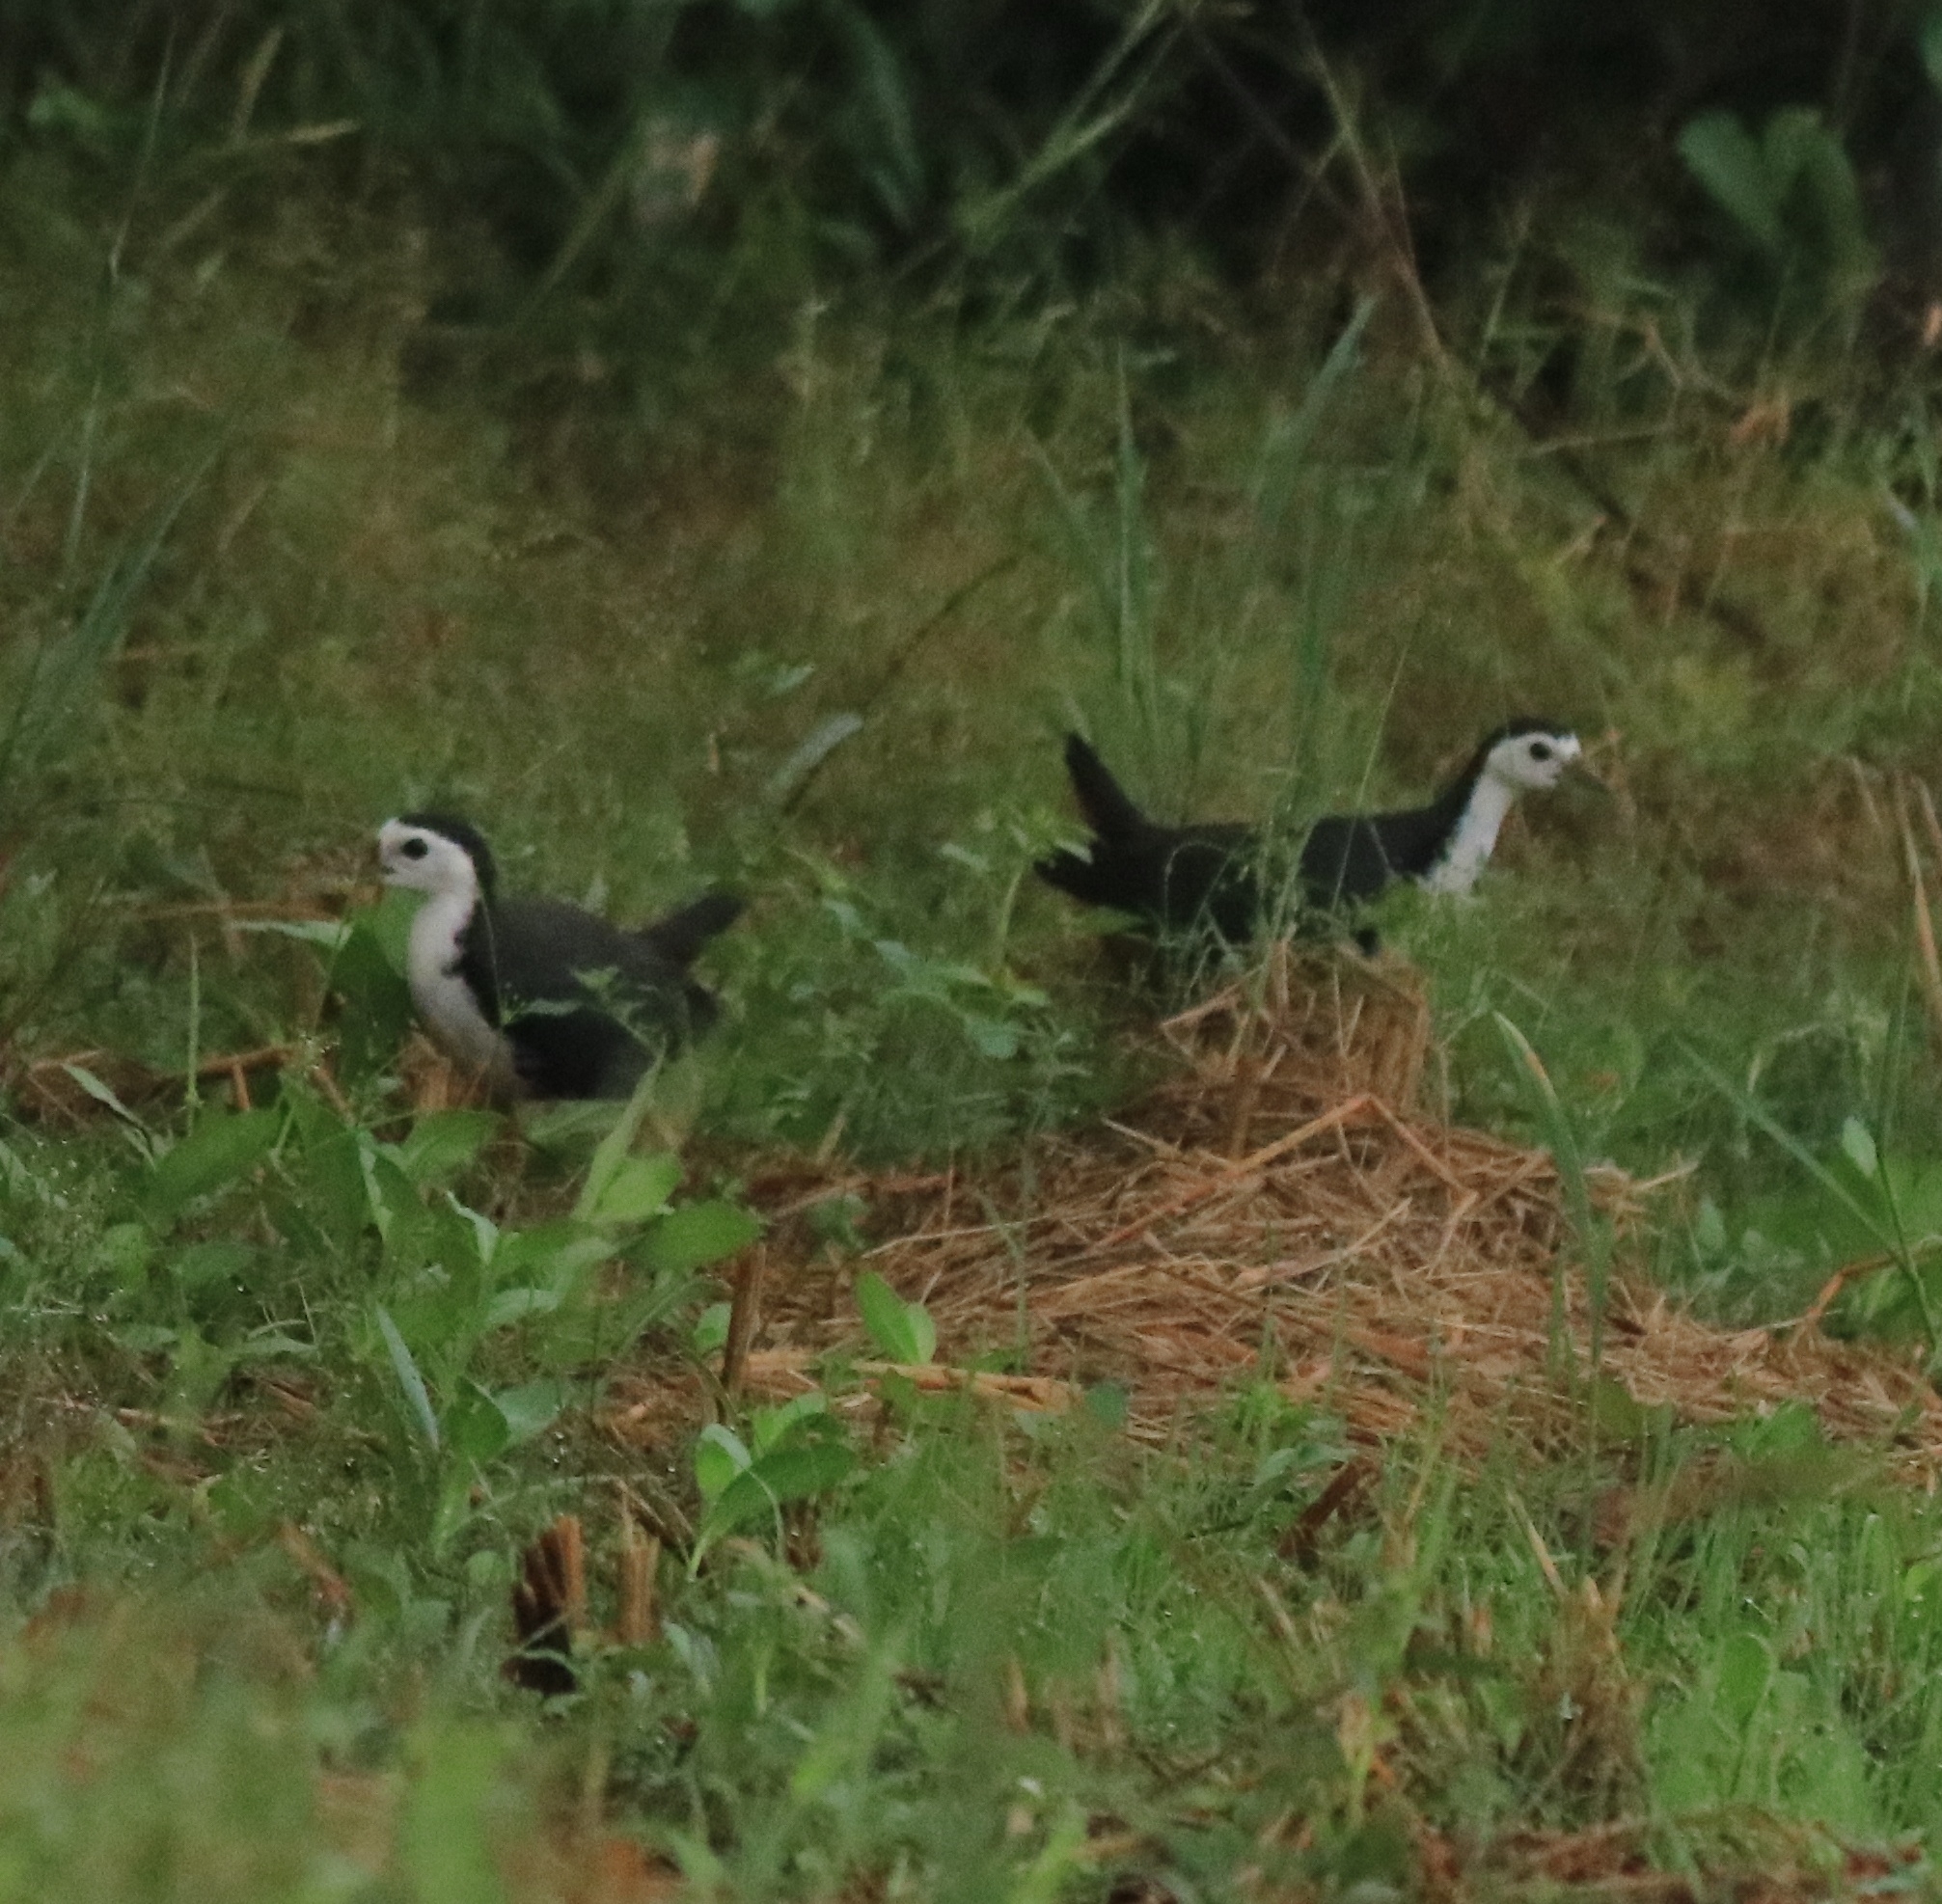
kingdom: Animalia
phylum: Chordata
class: Aves
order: Gruiformes
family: Rallidae
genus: Amaurornis
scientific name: Amaurornis phoenicurus
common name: White-breasted waterhen
